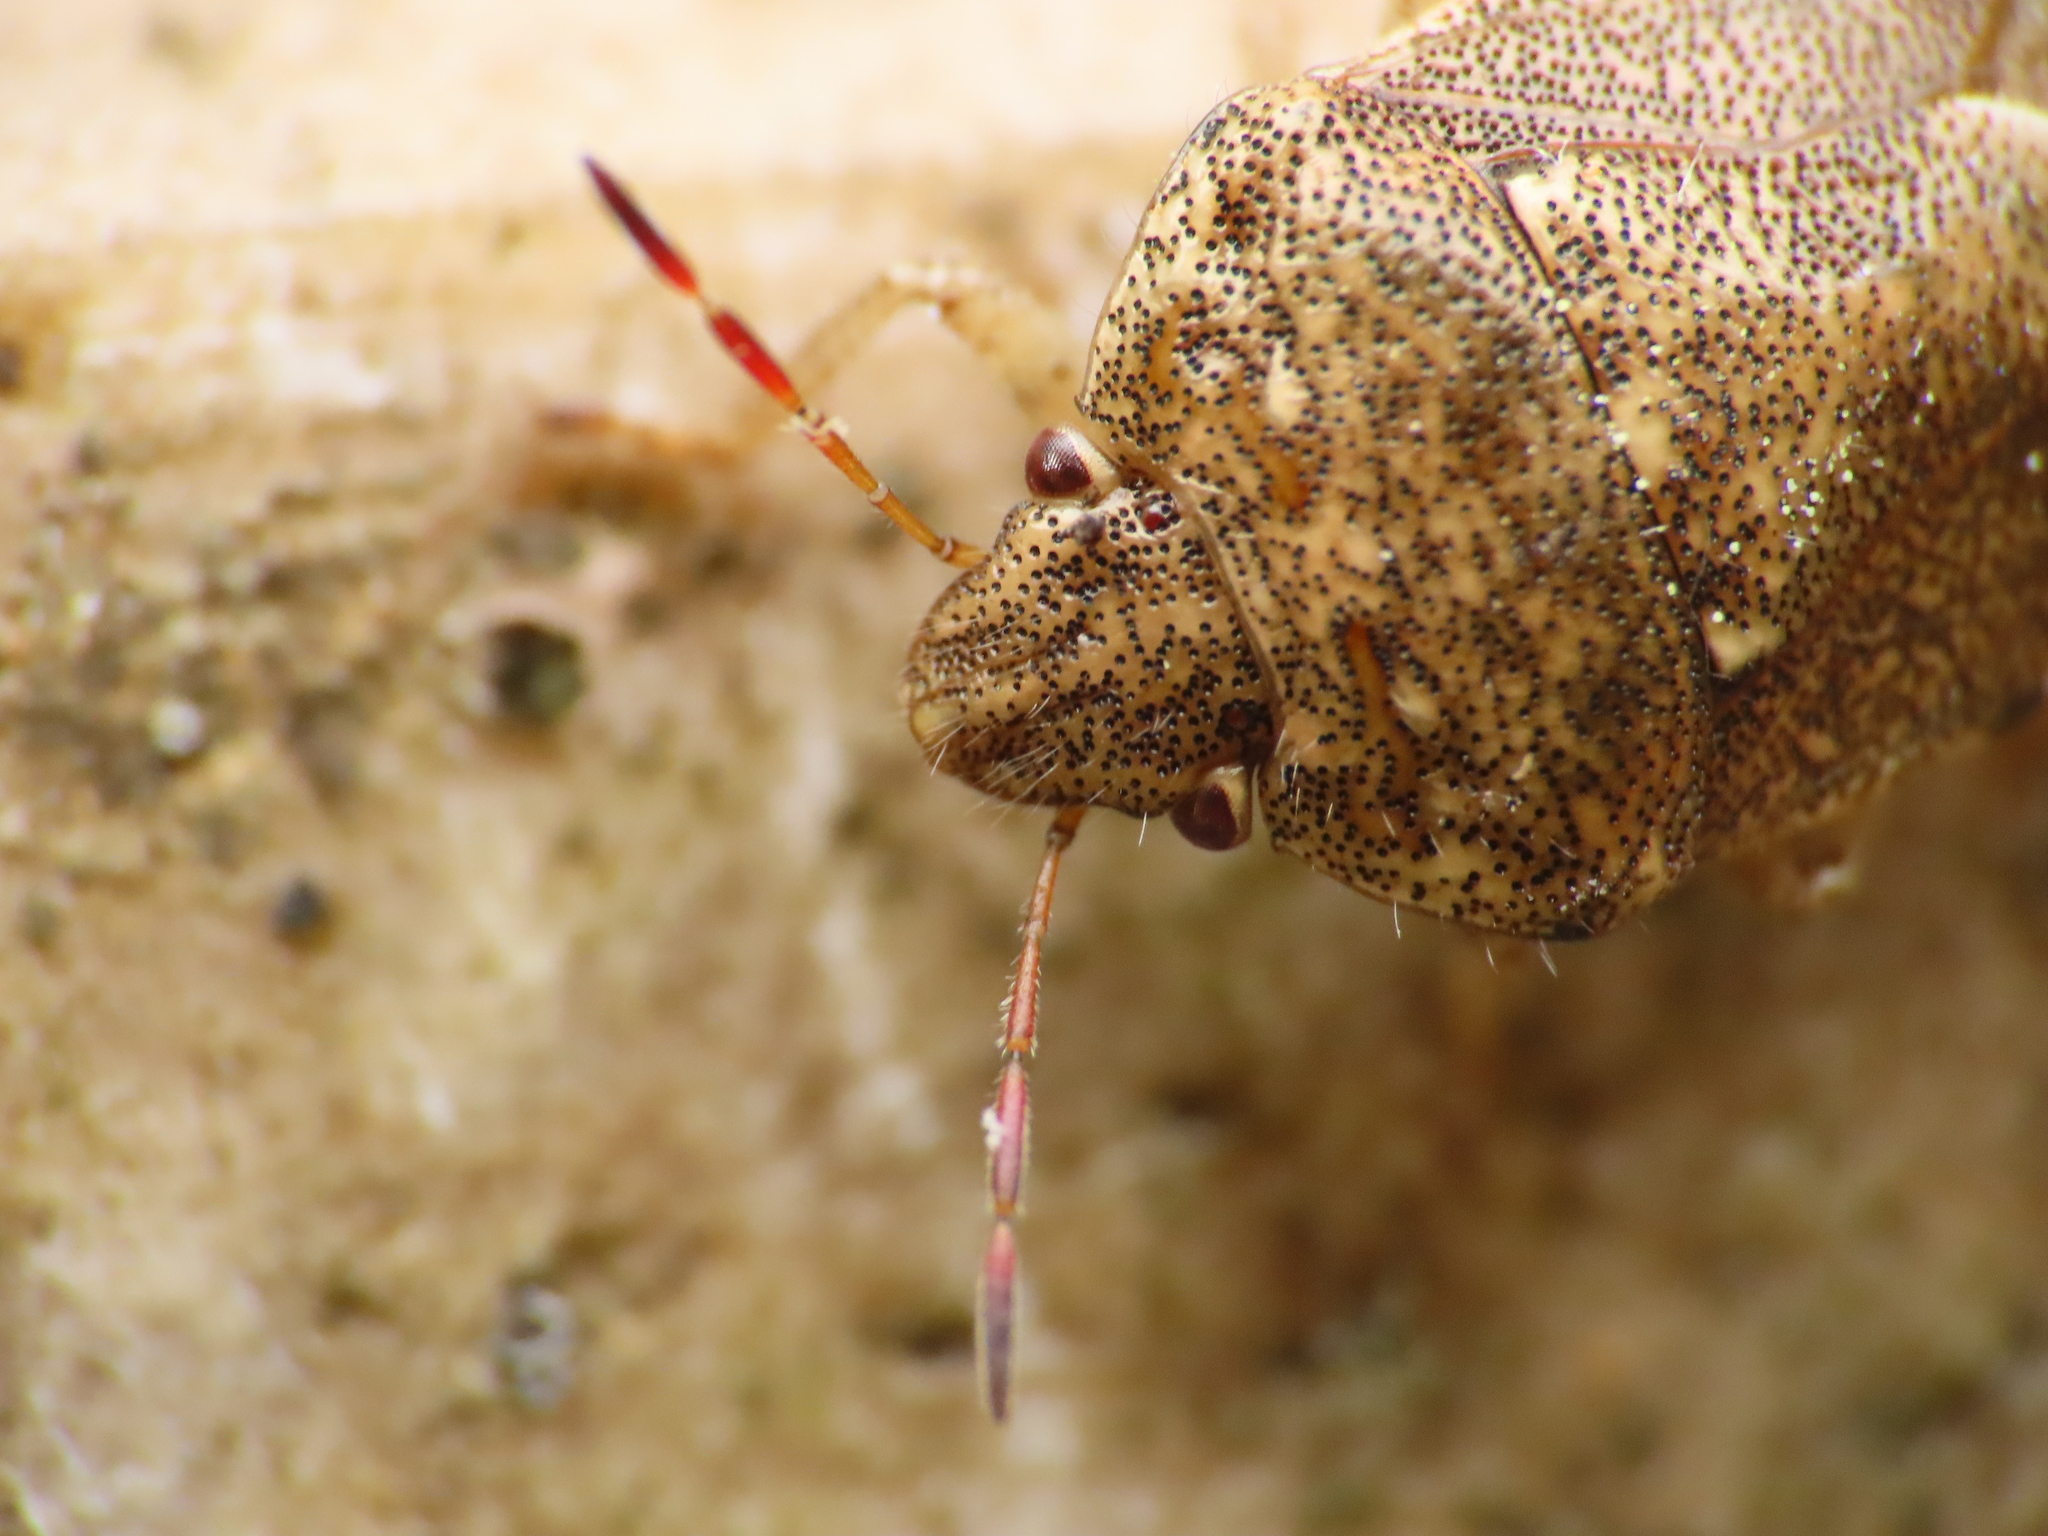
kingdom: Animalia
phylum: Arthropoda
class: Insecta
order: Hemiptera
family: Pentatomidae
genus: Staria
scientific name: Staria lunata
